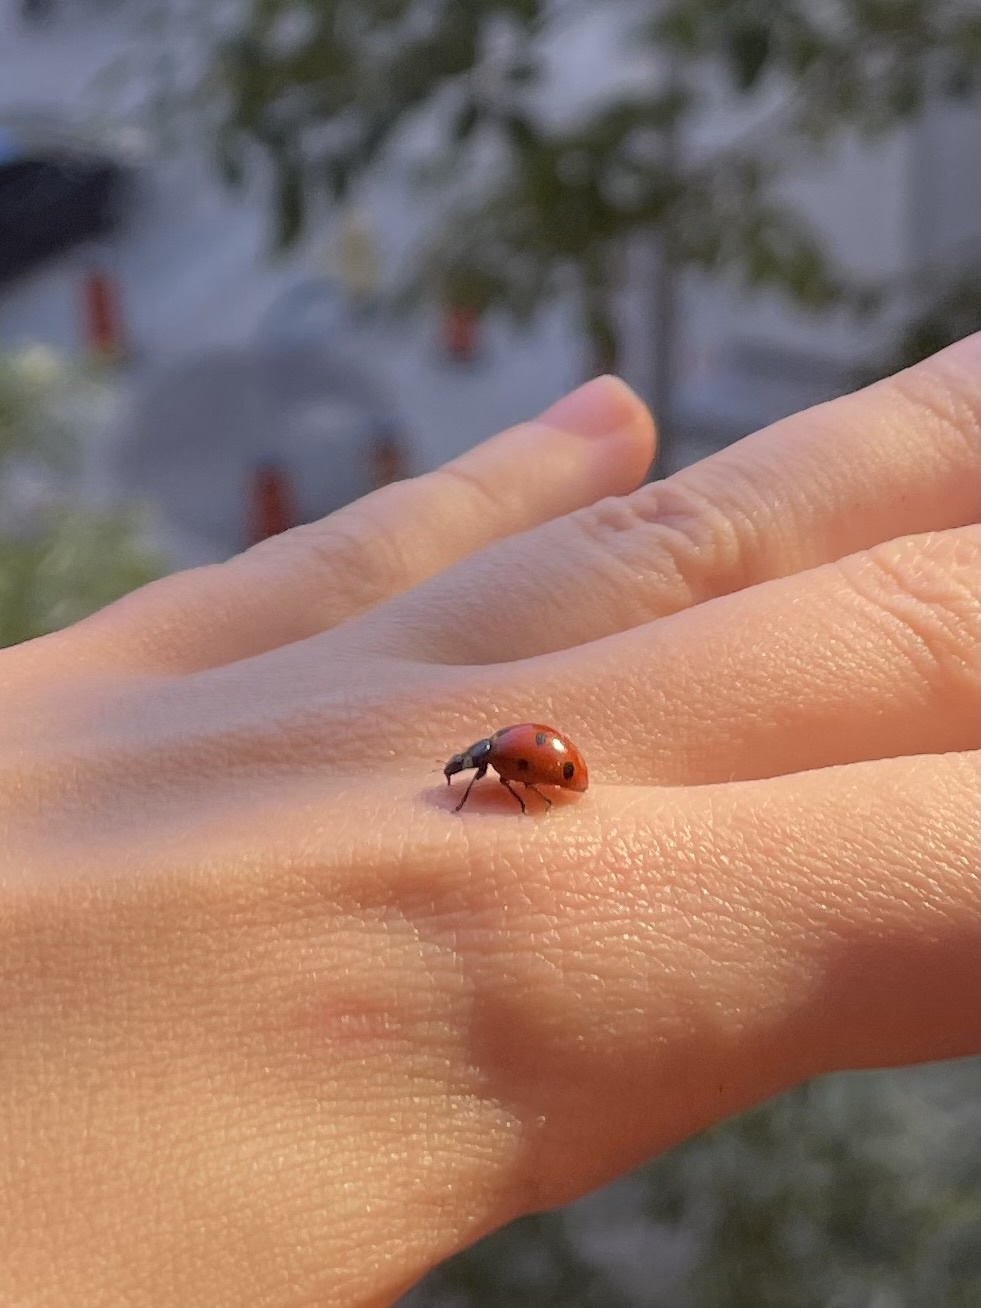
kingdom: Animalia
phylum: Arthropoda
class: Insecta
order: Coleoptera
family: Coccinellidae
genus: Coccinella
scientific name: Coccinella septempunctata
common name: Sevenspotted lady beetle
